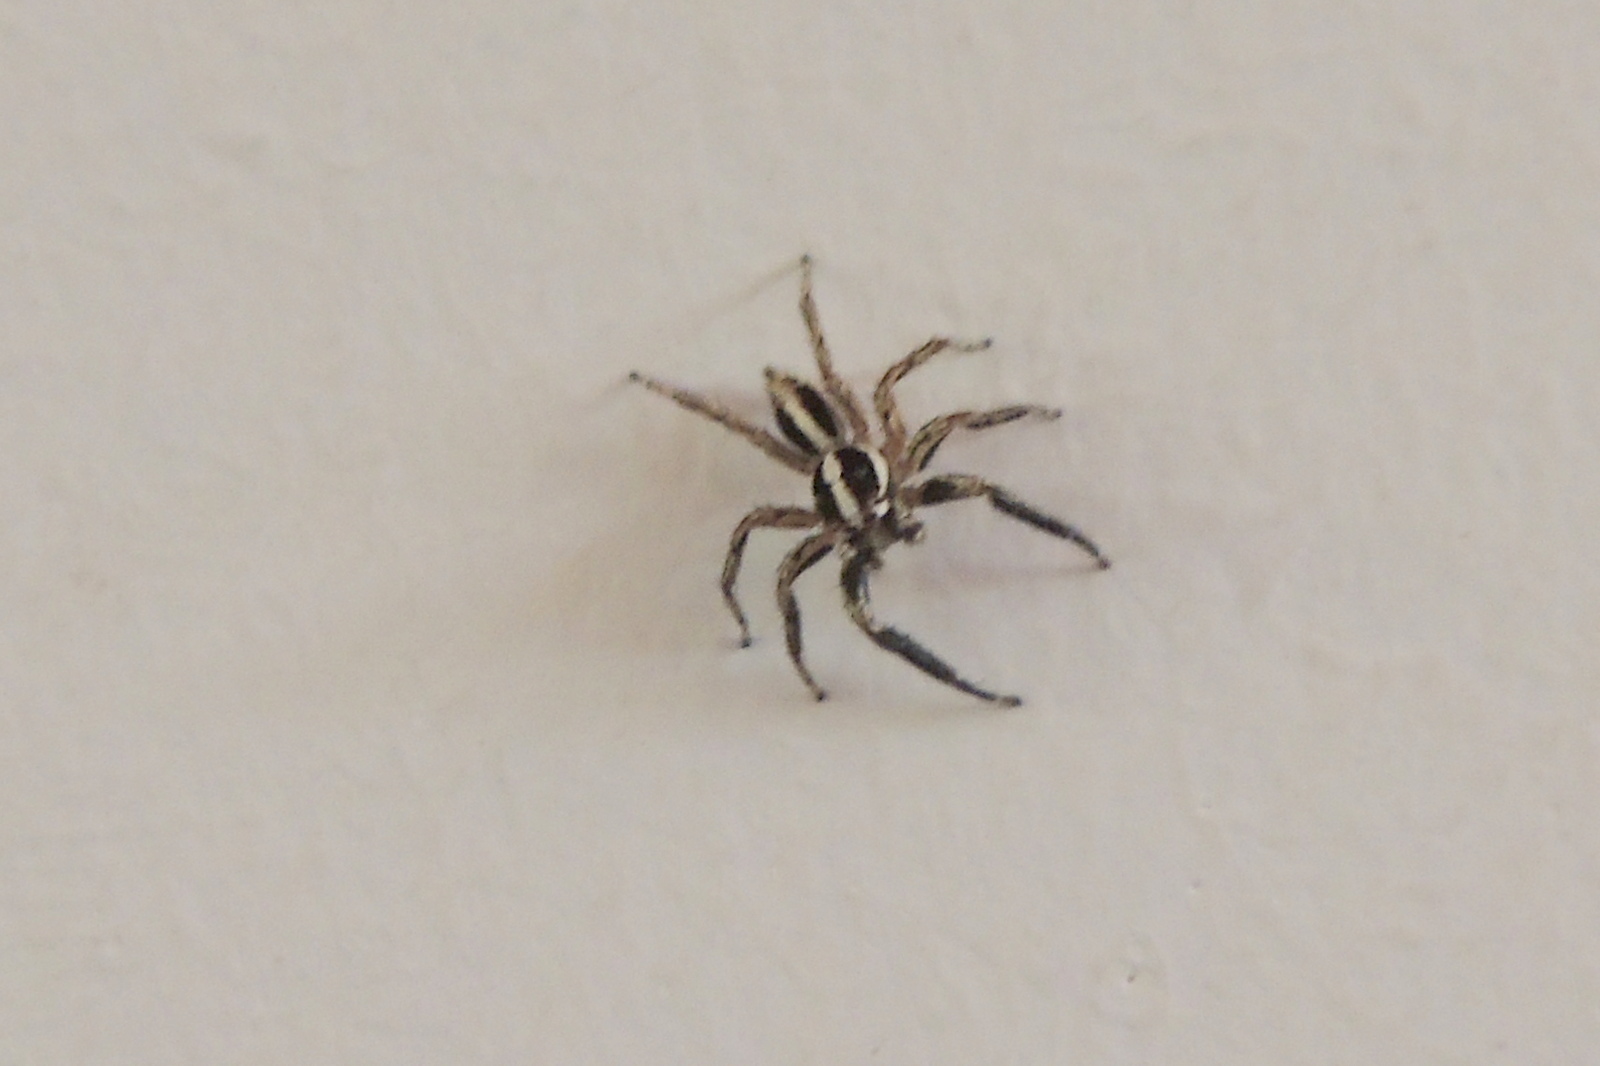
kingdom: Animalia
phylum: Arthropoda
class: Arachnida
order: Araneae
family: Salticidae
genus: Plexippus
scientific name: Plexippus paykulli
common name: Pantropical jumper
